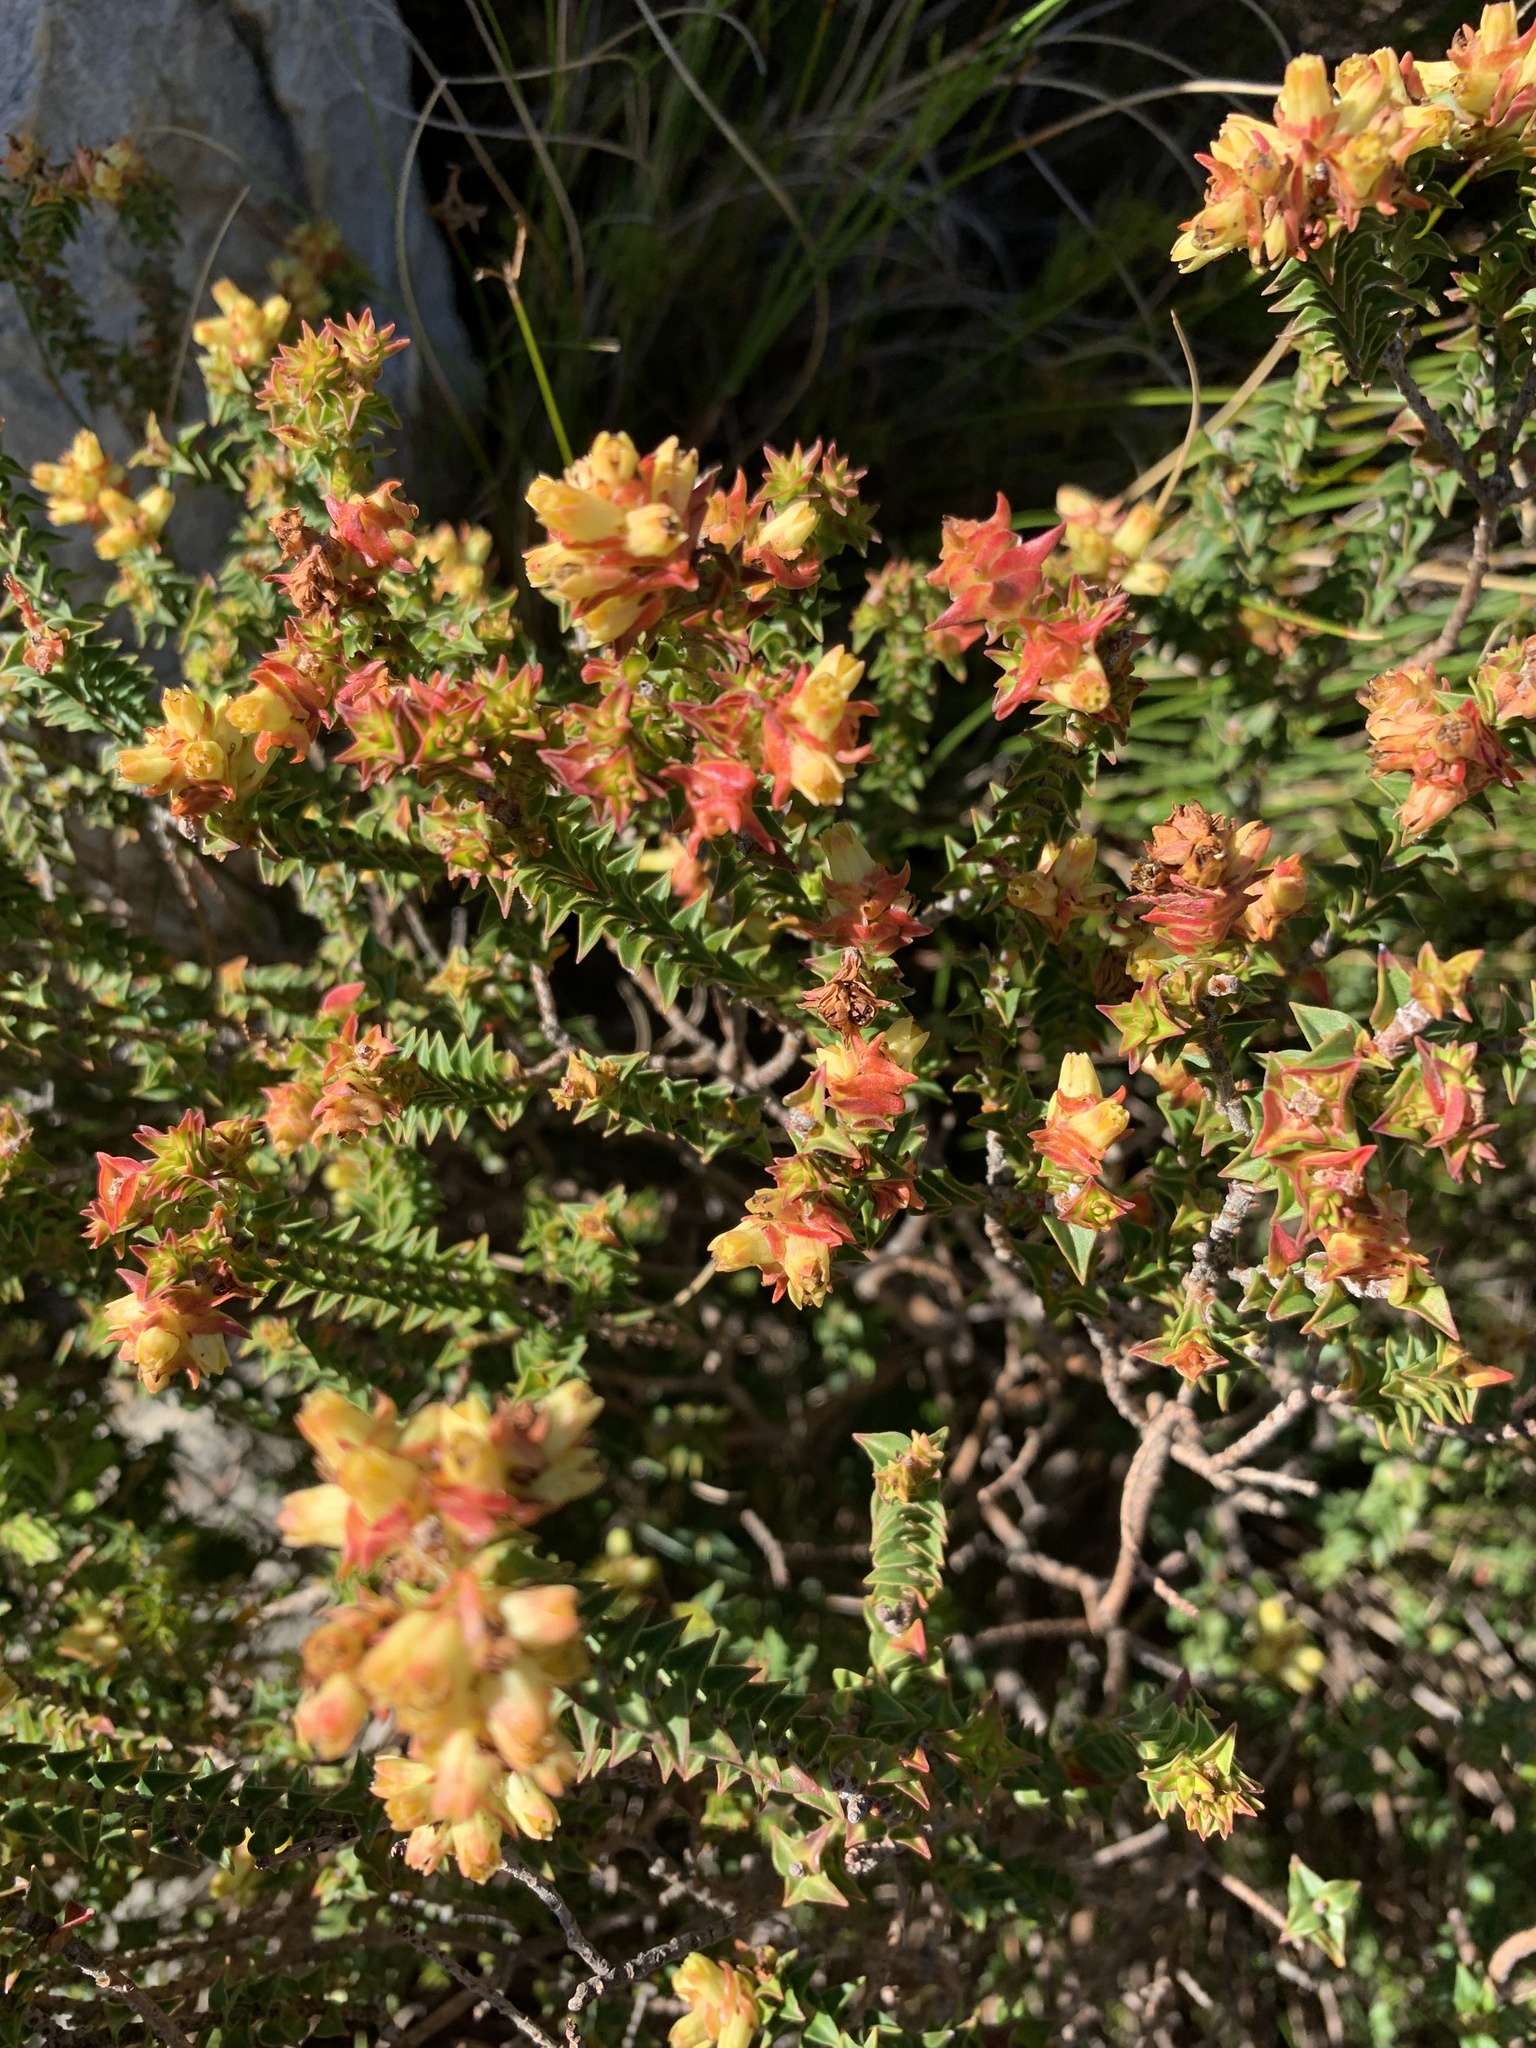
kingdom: Plantae
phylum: Tracheophyta
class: Magnoliopsida
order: Myrtales
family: Penaeaceae
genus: Penaea
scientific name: Penaea mucronata
